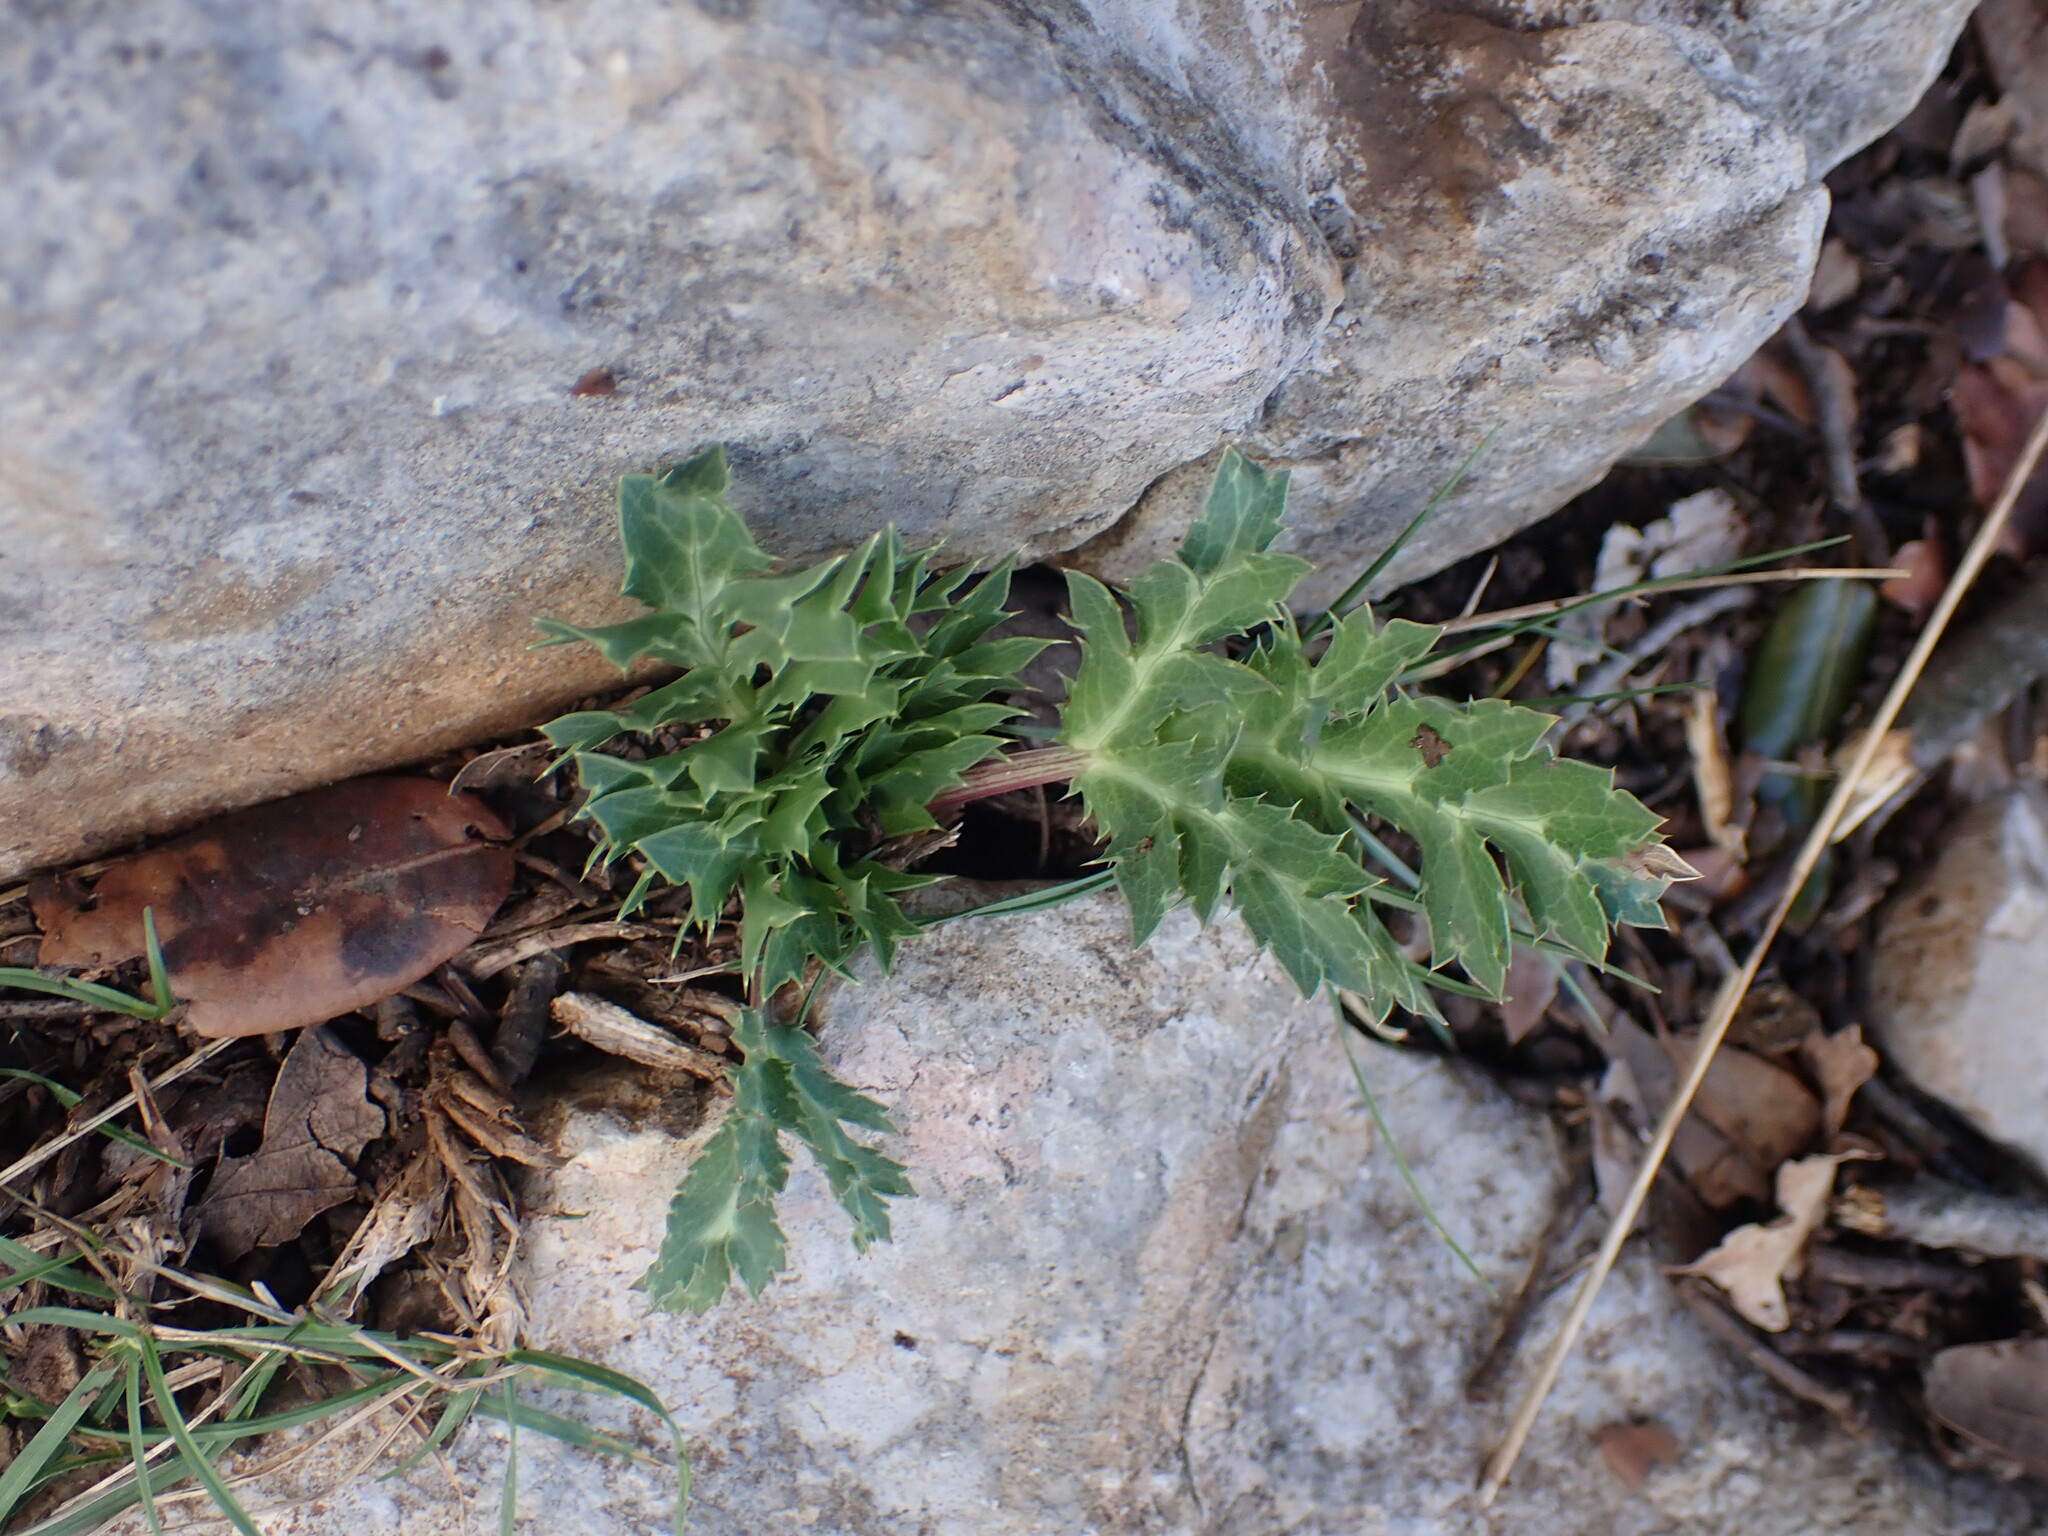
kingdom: Plantae
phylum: Tracheophyta
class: Magnoliopsida
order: Apiales
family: Apiaceae
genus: Eryngium
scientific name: Eryngium campestre
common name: Field eryngo
